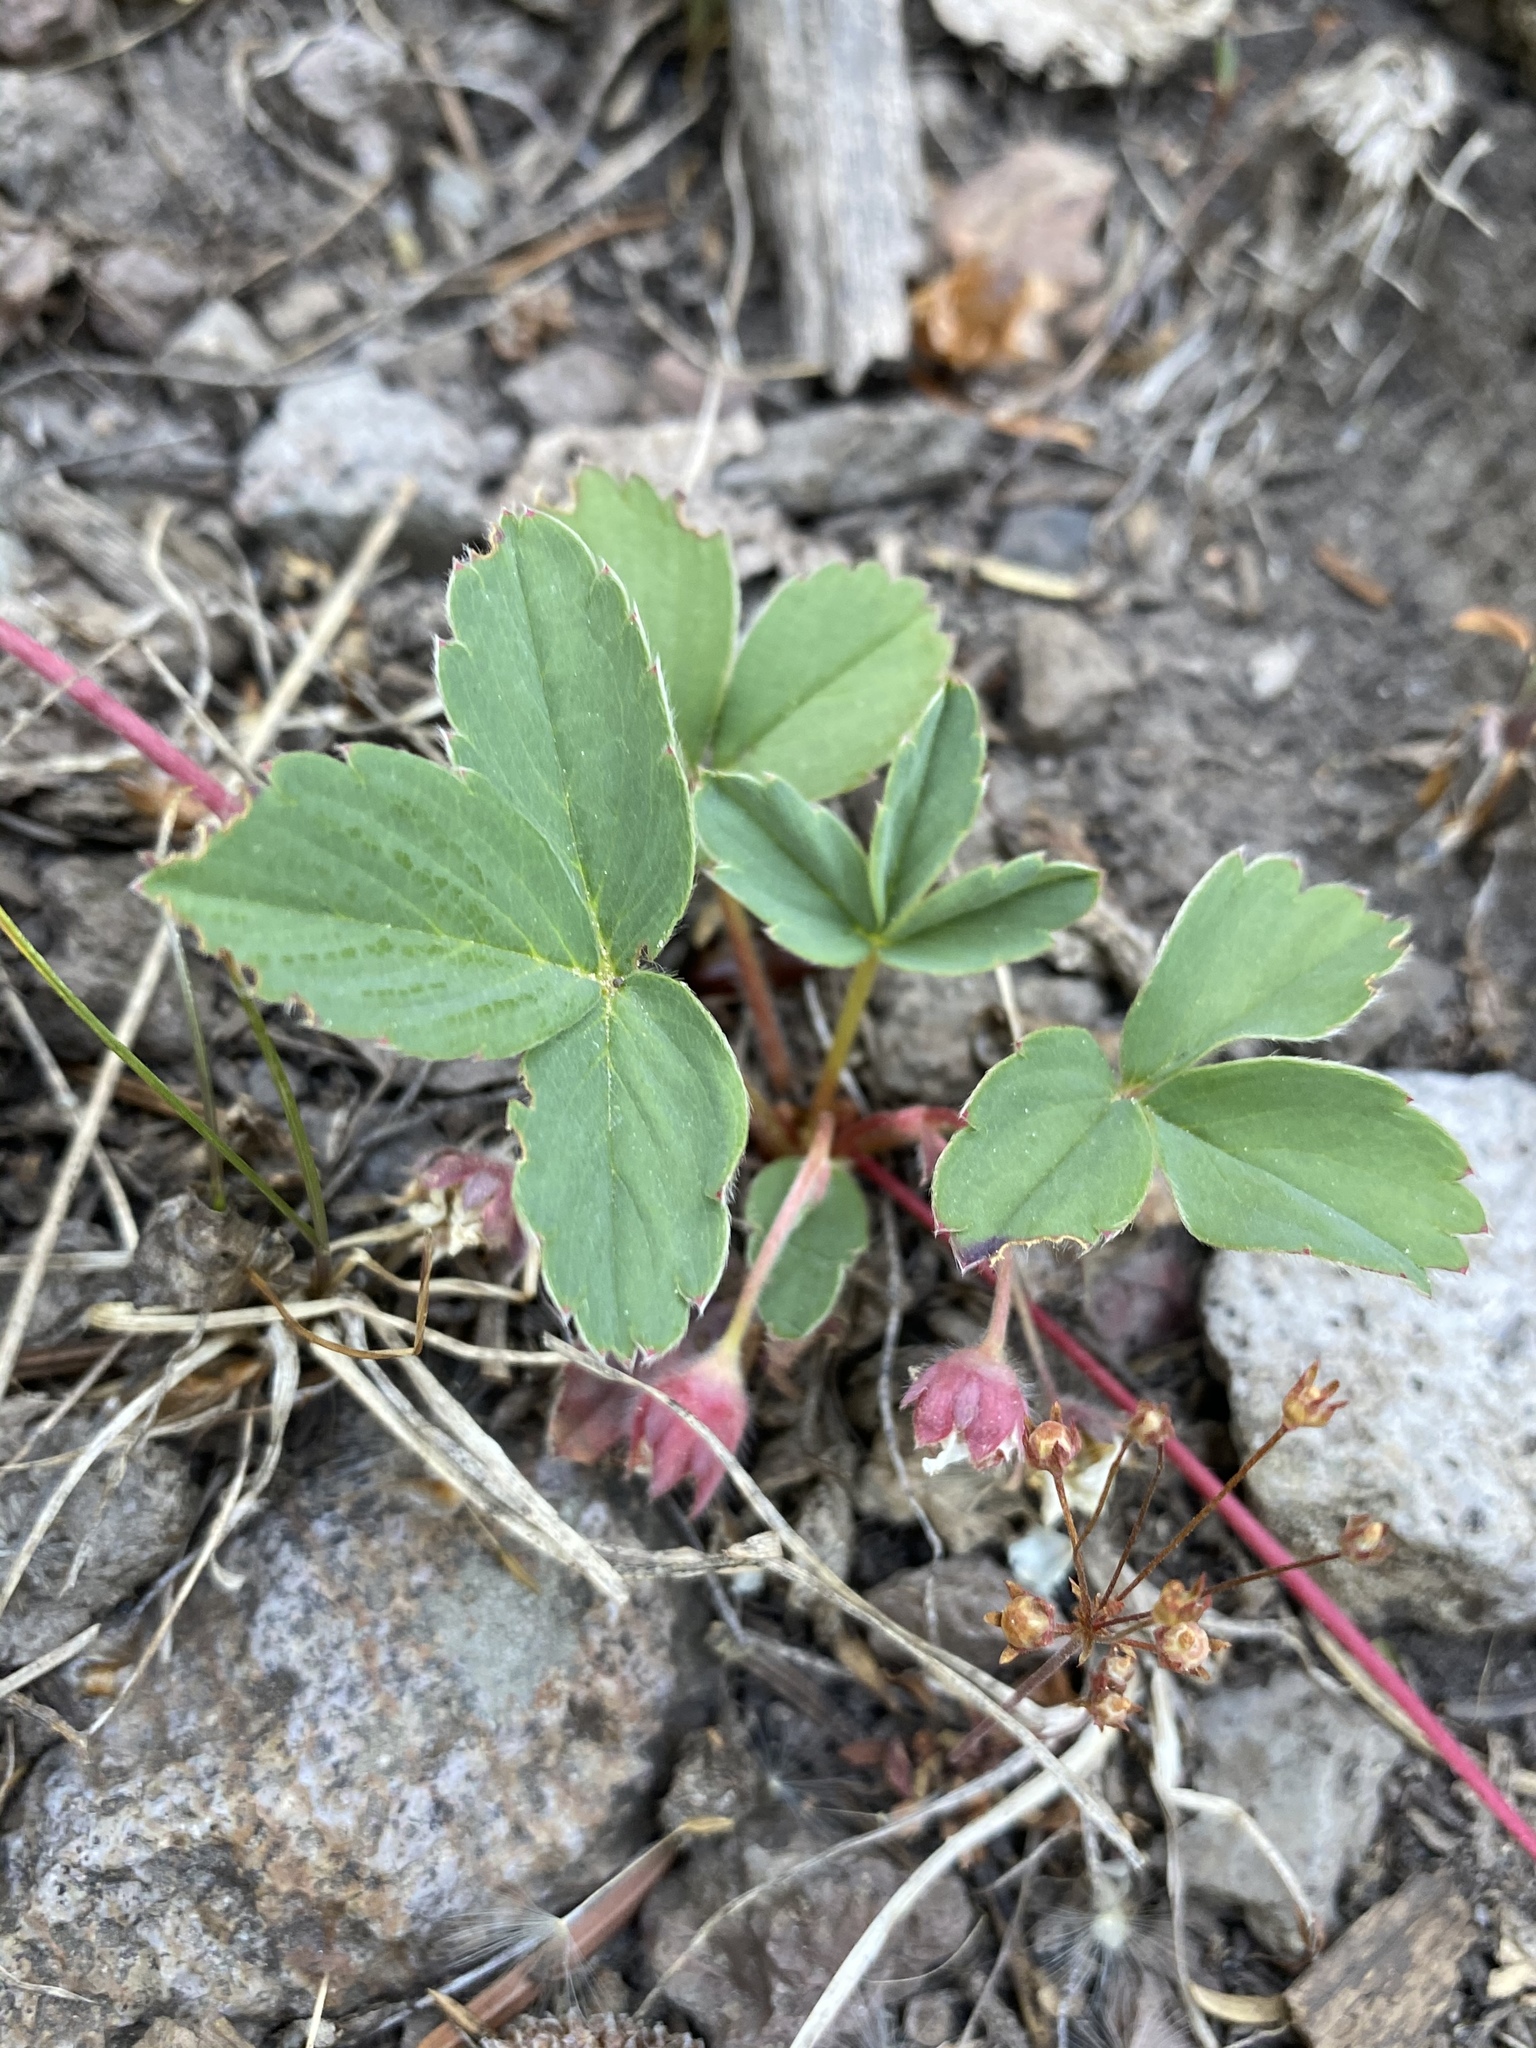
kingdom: Plantae
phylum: Tracheophyta
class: Magnoliopsida
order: Rosales
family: Rosaceae
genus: Fragaria
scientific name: Fragaria virginiana
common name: Thickleaved wild strawberry
